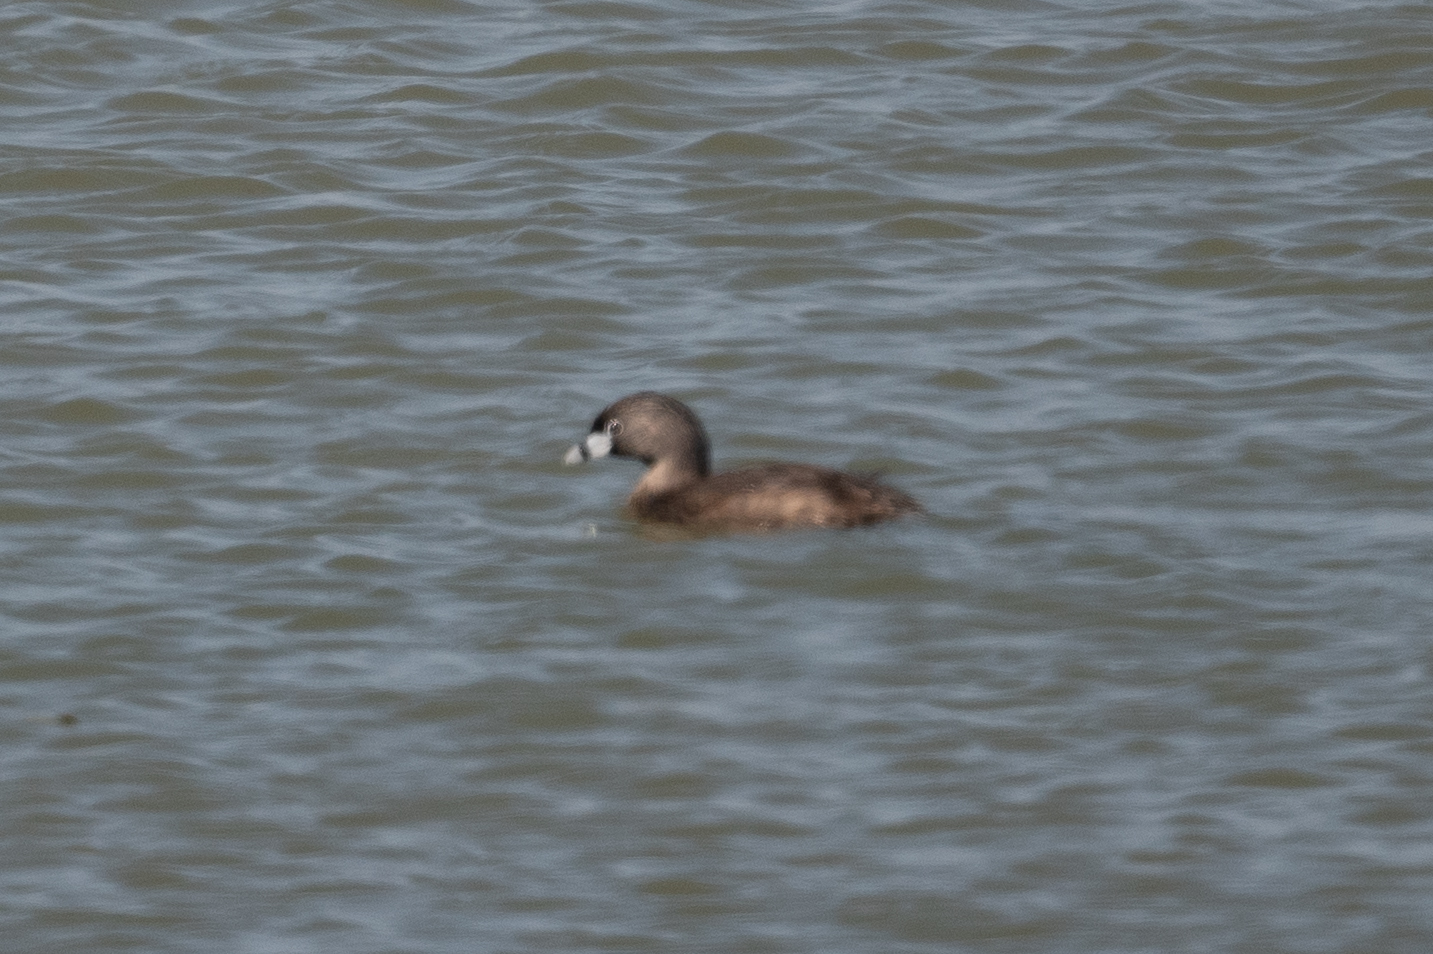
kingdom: Animalia
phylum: Chordata
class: Aves
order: Podicipediformes
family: Podicipedidae
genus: Podilymbus
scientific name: Podilymbus podiceps
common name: Pied-billed grebe
